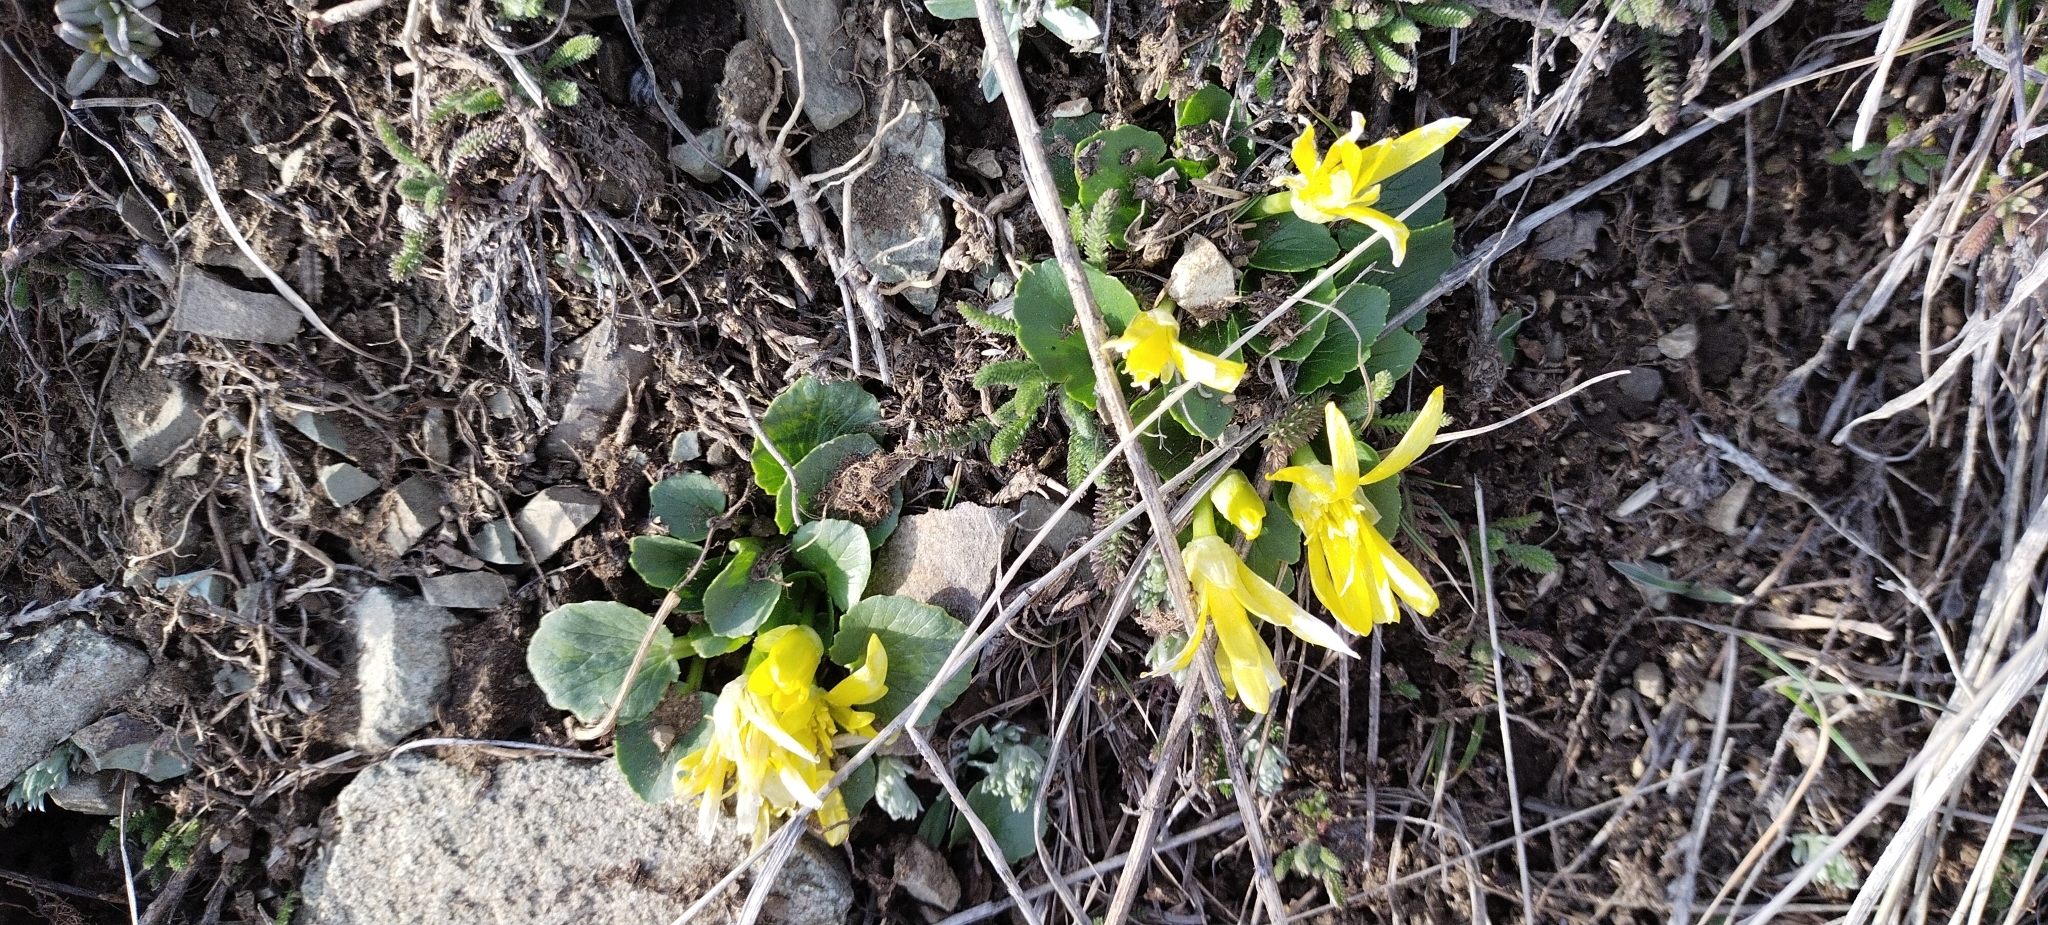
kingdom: Plantae
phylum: Tracheophyta
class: Magnoliopsida
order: Ranunculales
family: Ranunculaceae
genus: Ficaria
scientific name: Ficaria verna
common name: Lesser celandine
